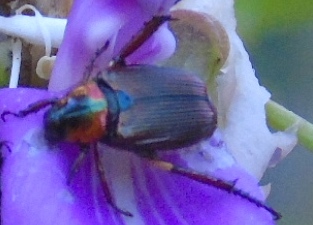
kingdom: Animalia
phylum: Arthropoda
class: Insecta
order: Coleoptera
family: Scarabaeidae
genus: Strigoderma
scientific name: Strigoderma
